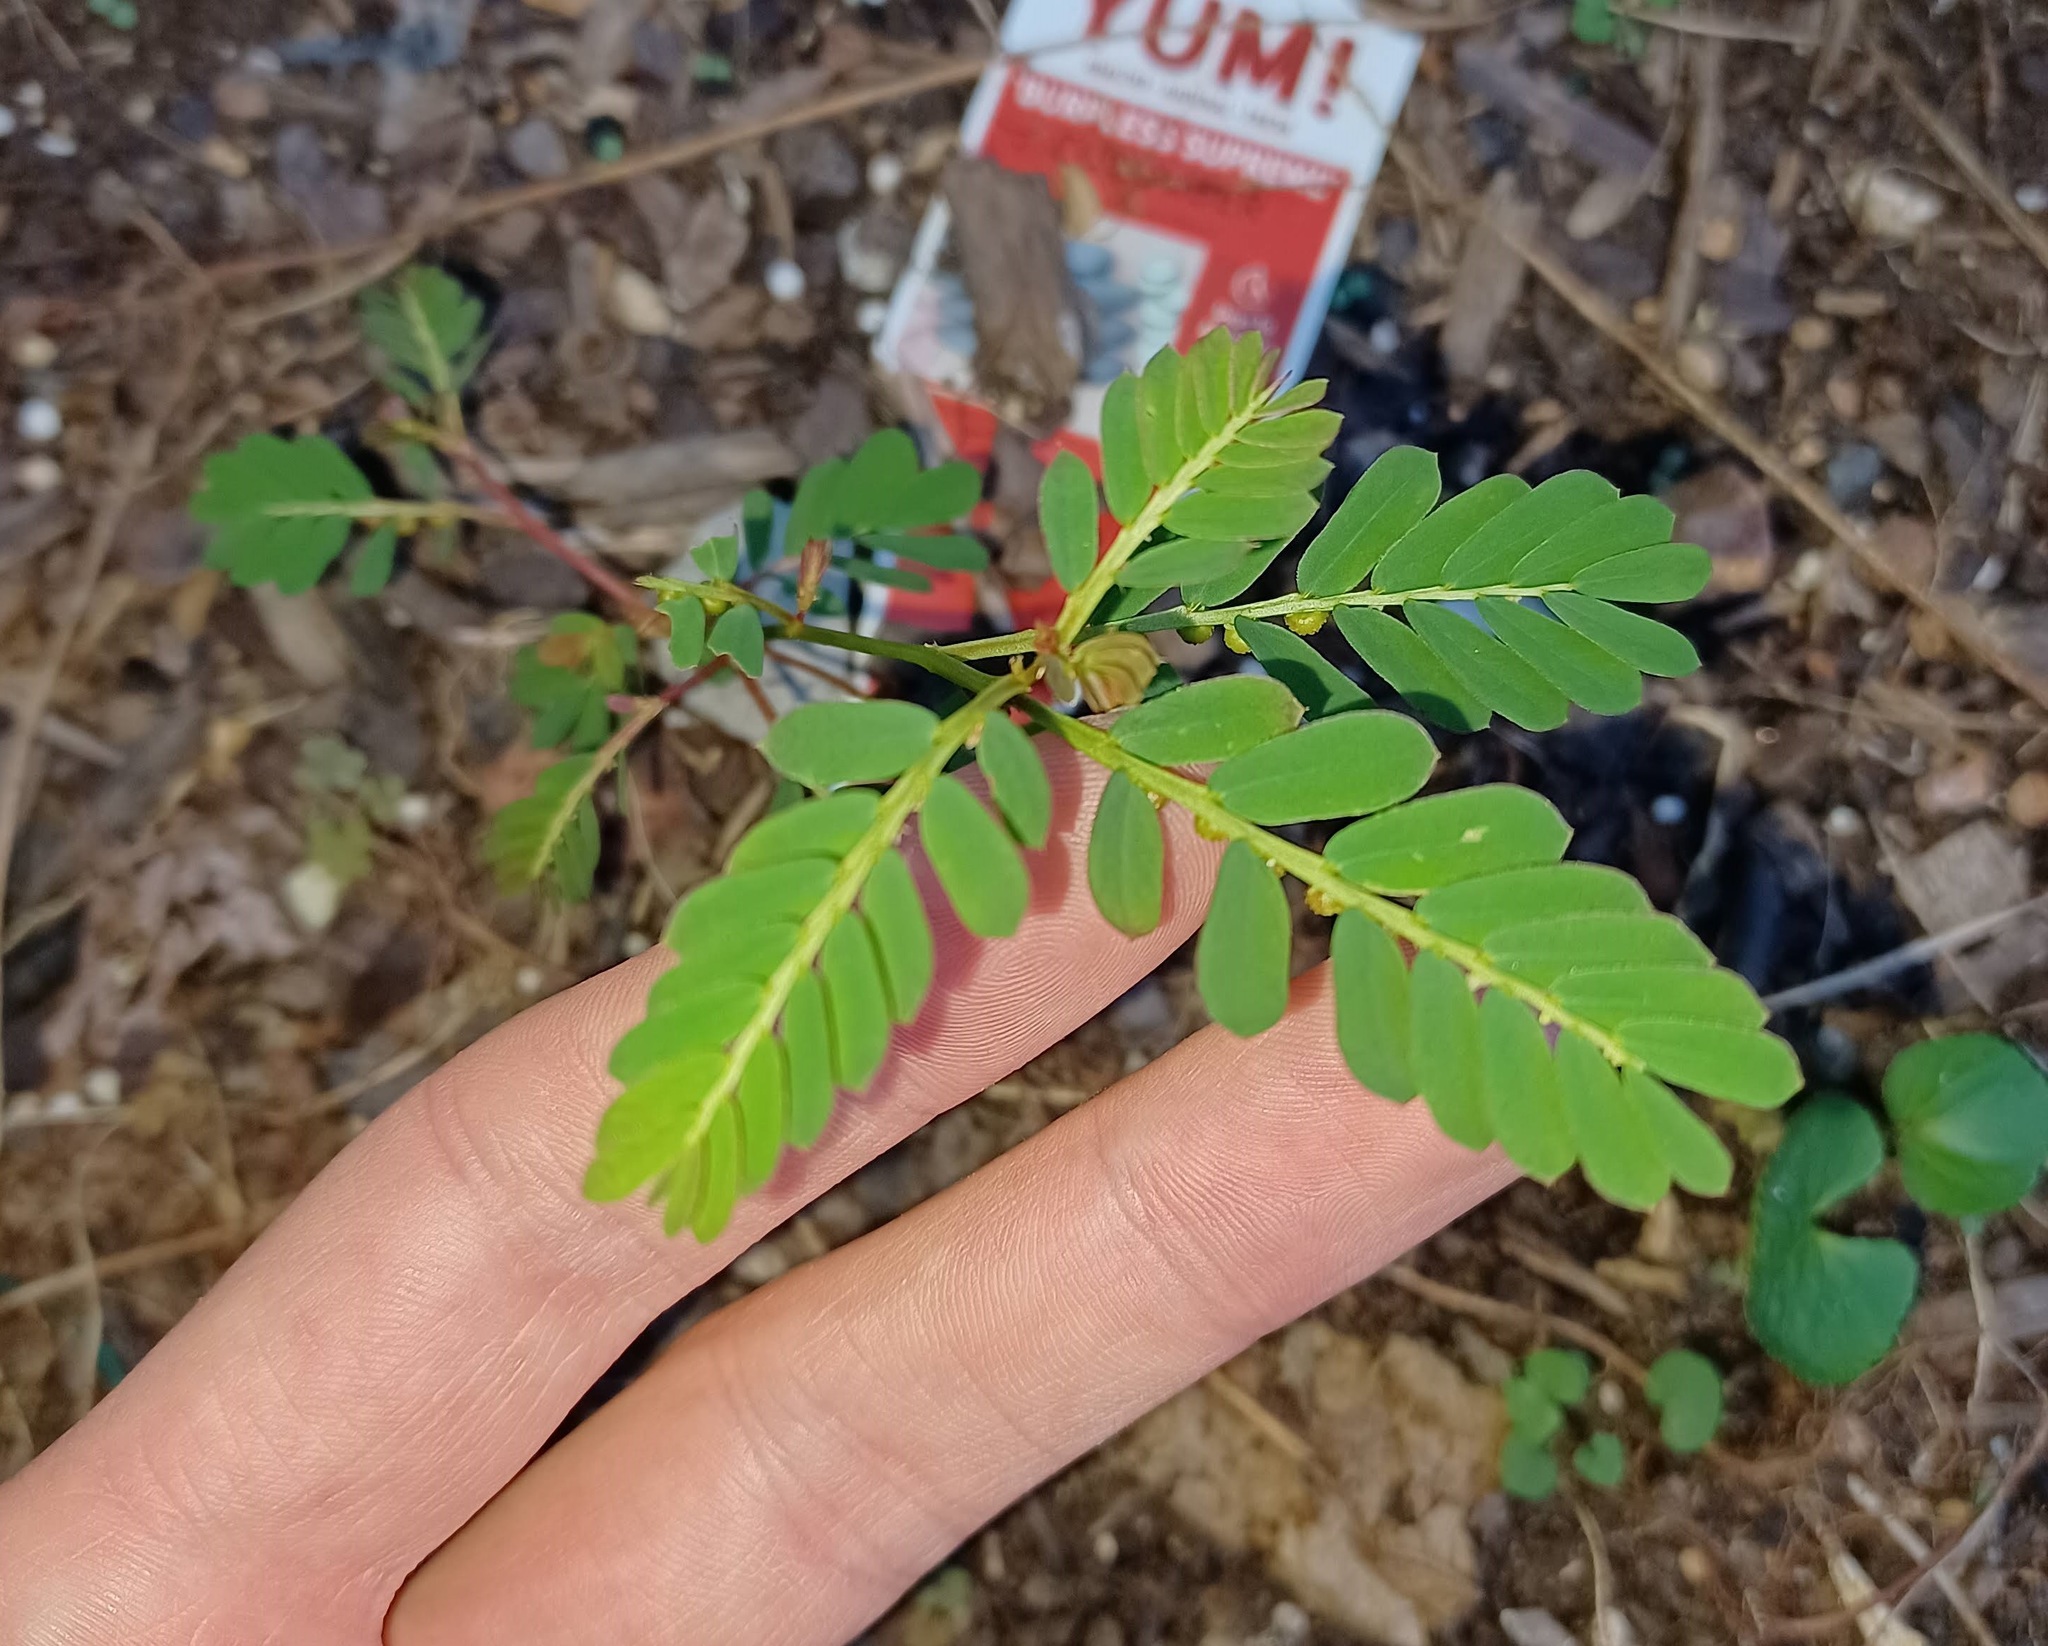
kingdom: Plantae
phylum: Tracheophyta
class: Magnoliopsida
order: Malpighiales
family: Phyllanthaceae
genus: Phyllanthus
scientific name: Phyllanthus urinaria
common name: Chamber bitter
